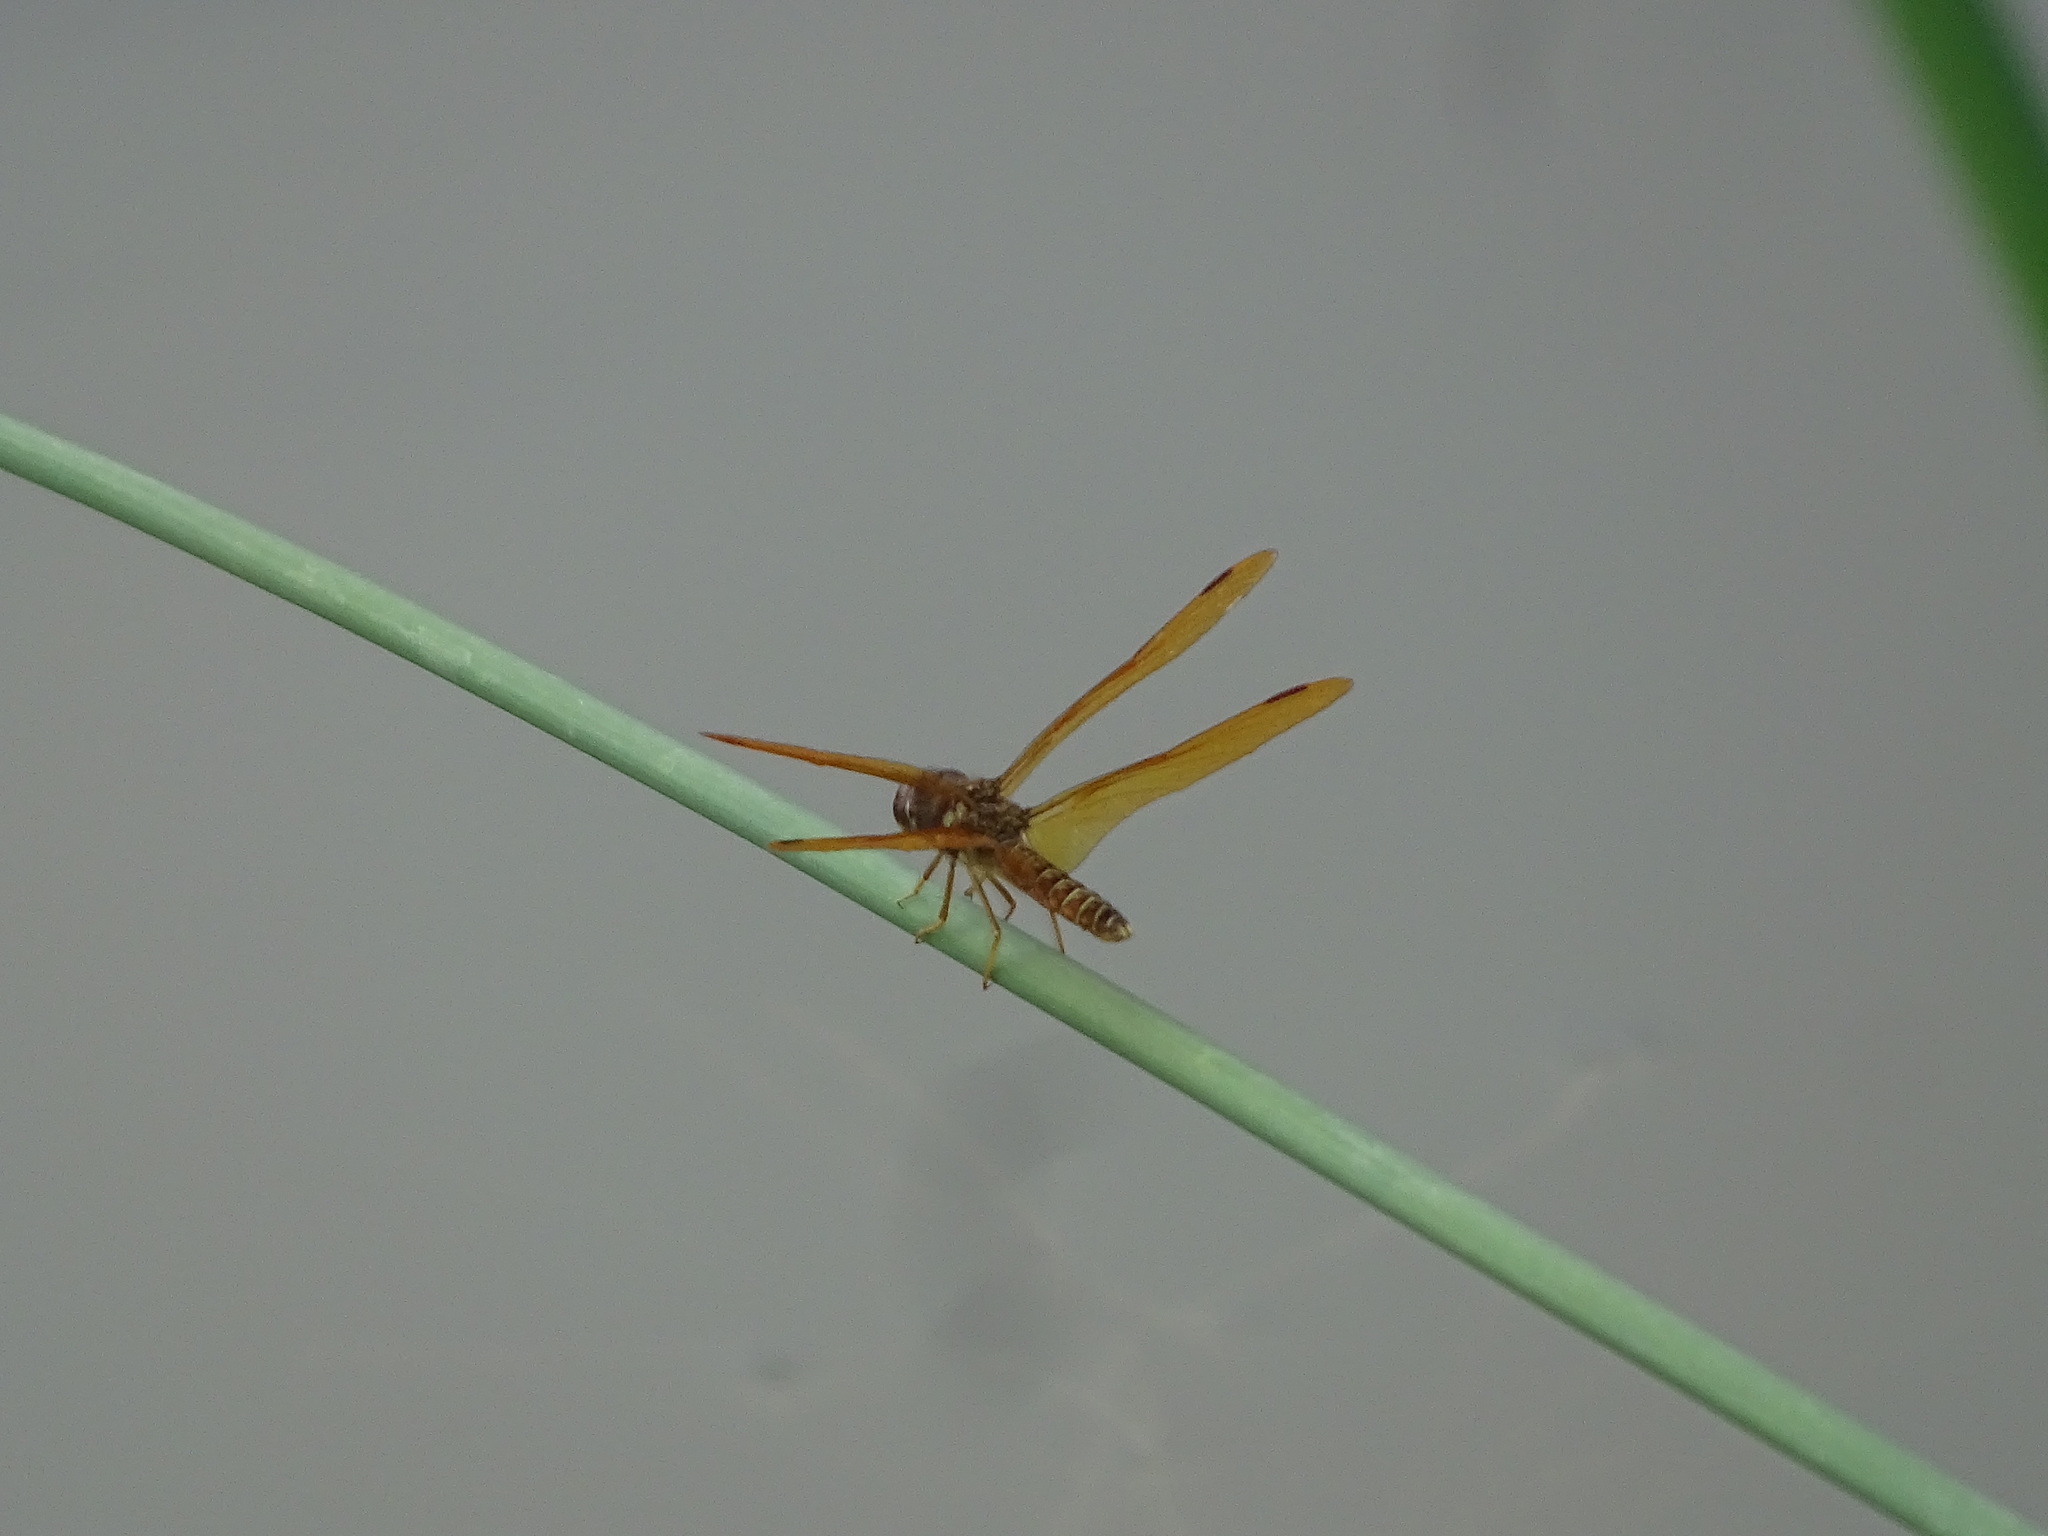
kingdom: Animalia
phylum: Arthropoda
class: Insecta
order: Odonata
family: Libellulidae
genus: Perithemis
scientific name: Perithemis tenera
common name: Eastern amberwing
